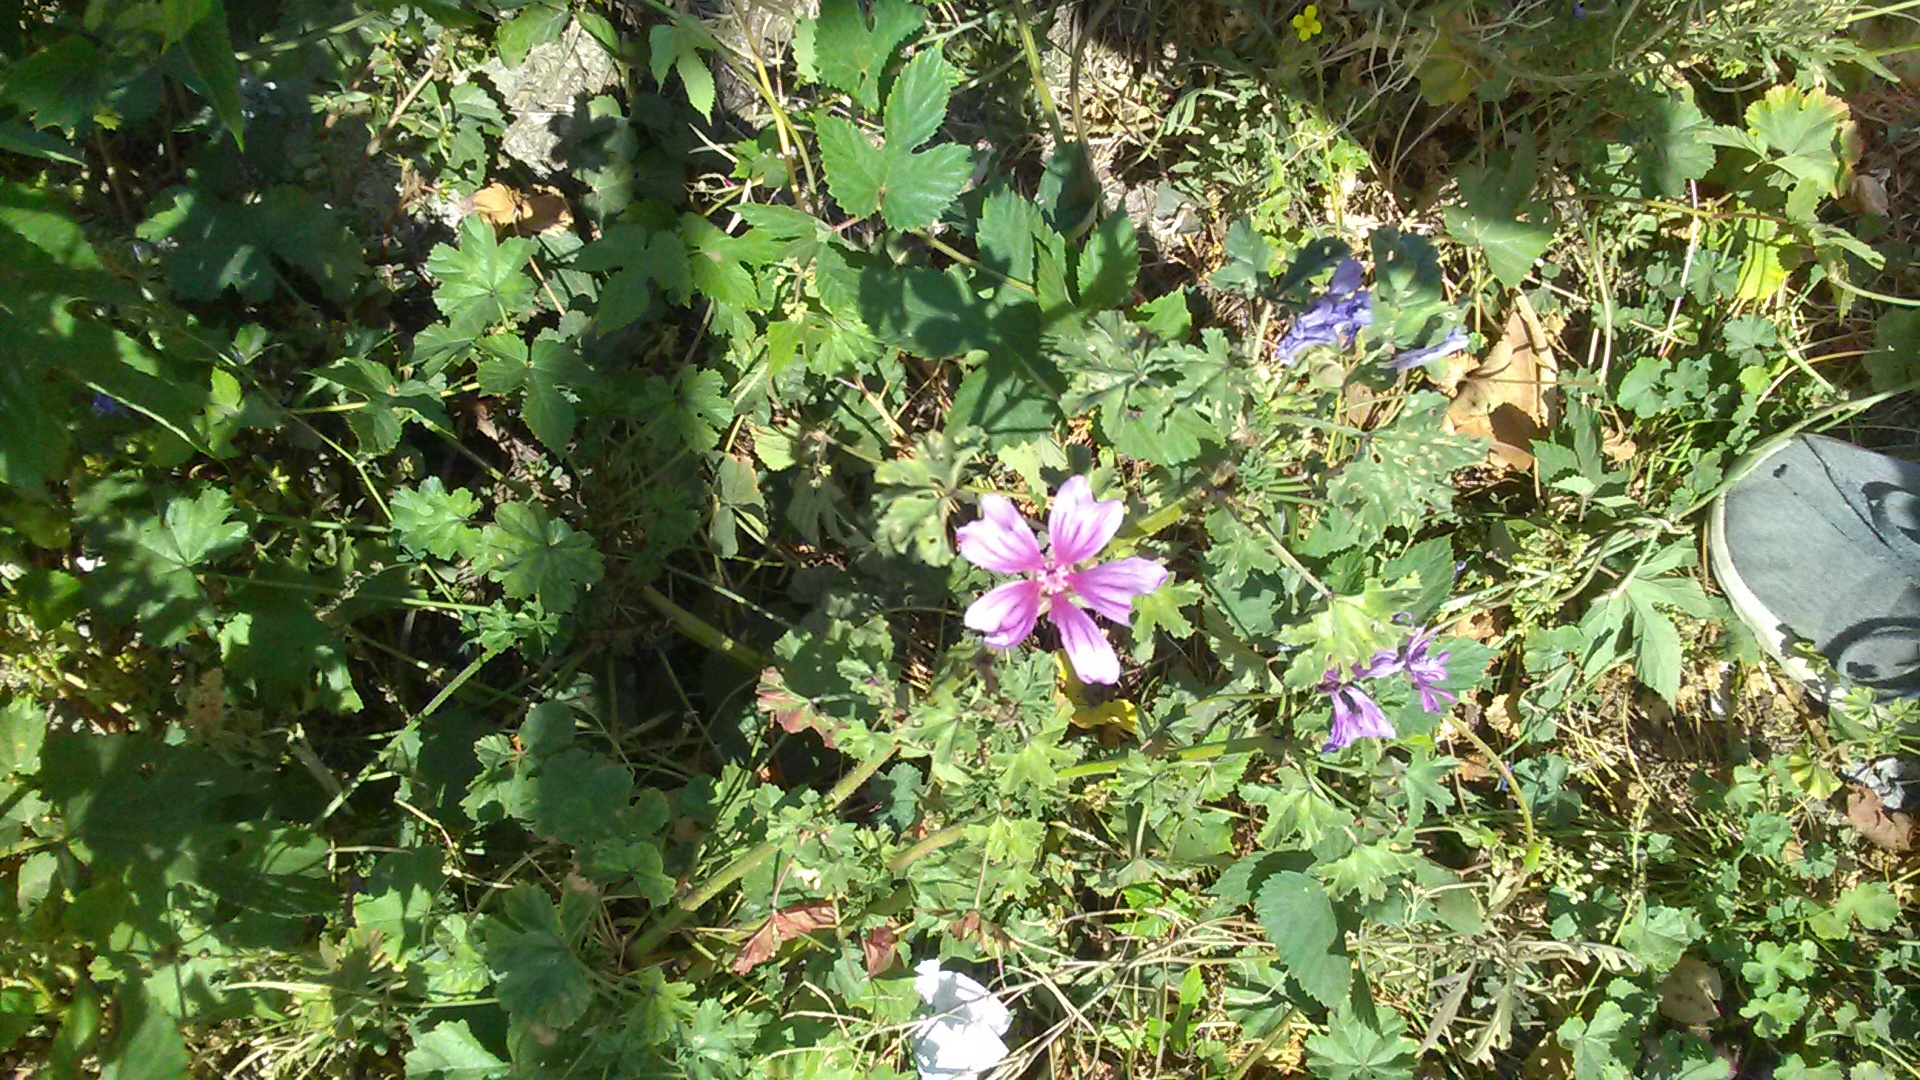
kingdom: Plantae
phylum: Tracheophyta
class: Magnoliopsida
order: Malvales
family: Malvaceae
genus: Malva
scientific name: Malva sylvestris
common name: Common mallow
